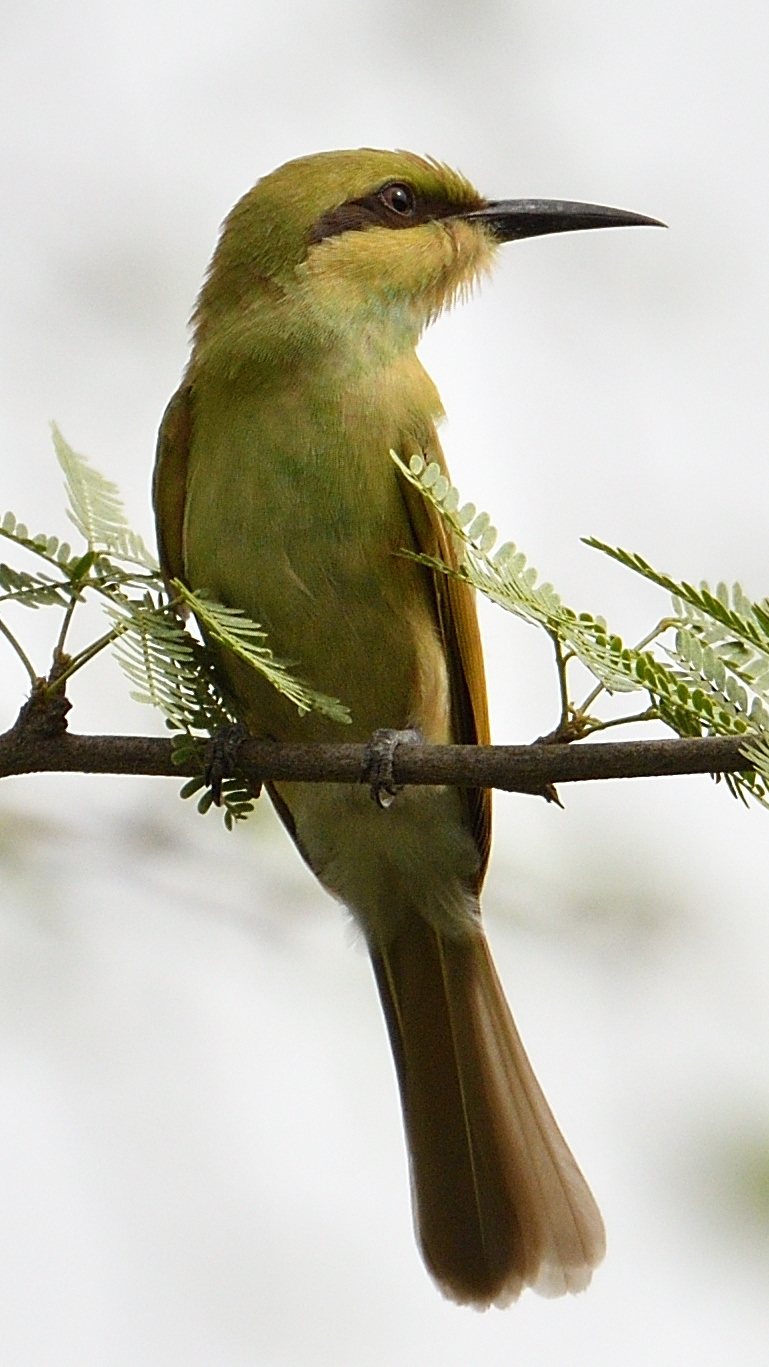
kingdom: Animalia
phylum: Chordata
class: Aves
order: Coraciiformes
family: Meropidae
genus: Merops
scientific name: Merops orientalis
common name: Green bee-eater
